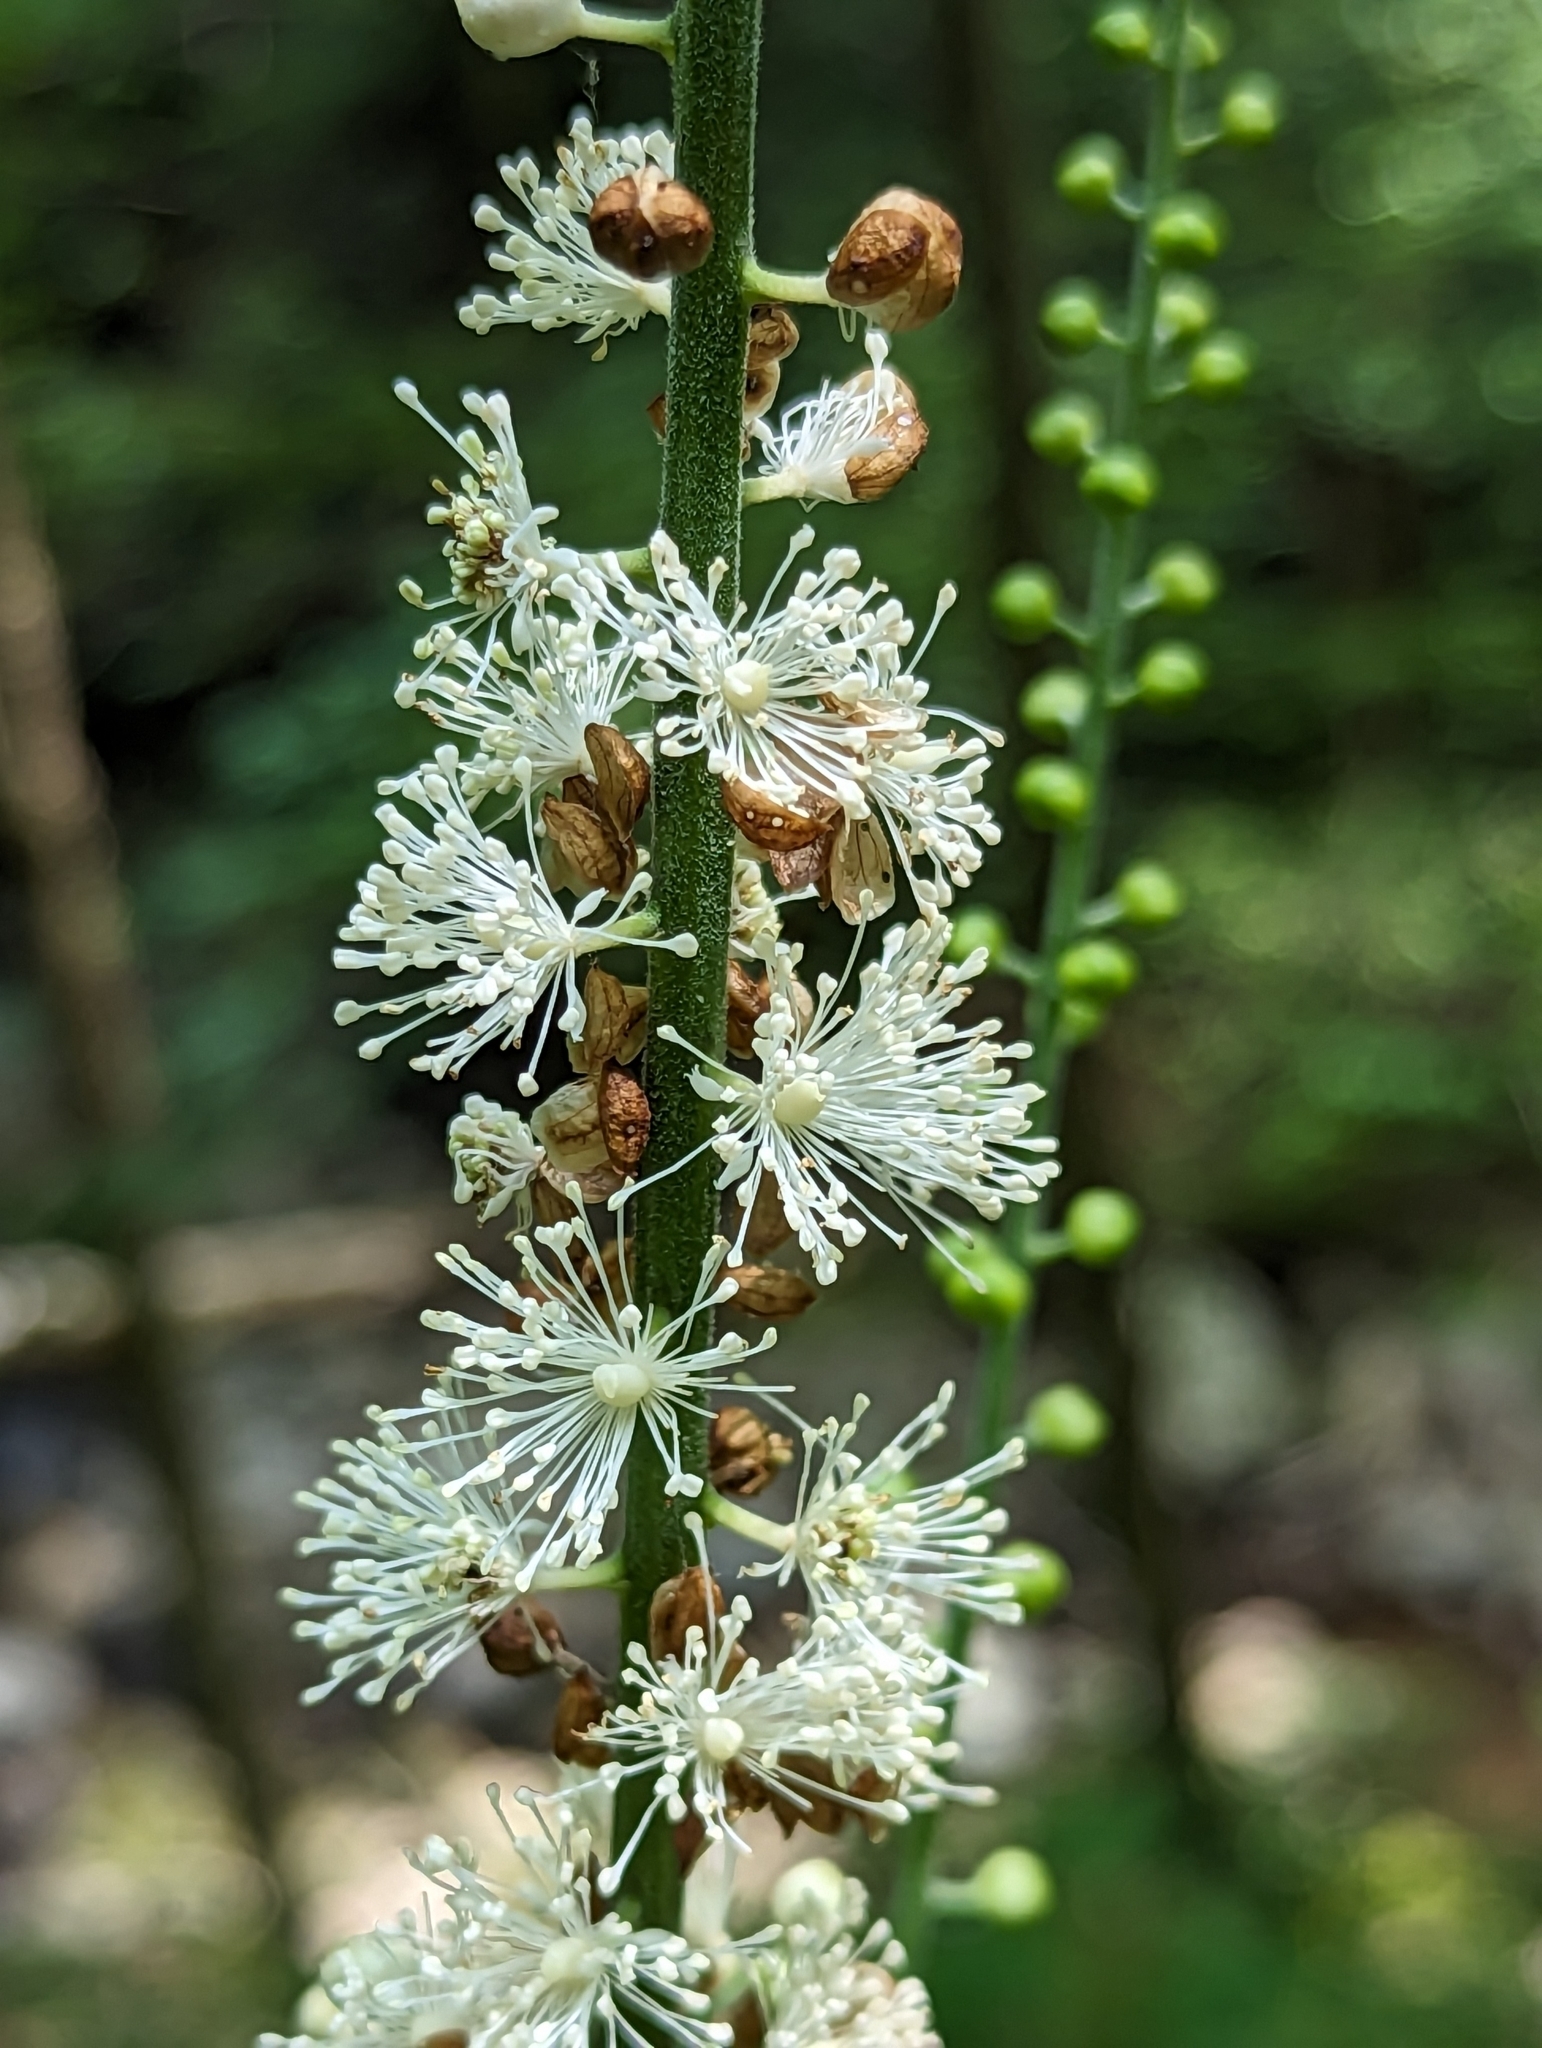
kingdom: Plantae
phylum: Tracheophyta
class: Magnoliopsida
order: Ranunculales
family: Ranunculaceae
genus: Actaea
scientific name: Actaea racemosa
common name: Black cohosh
